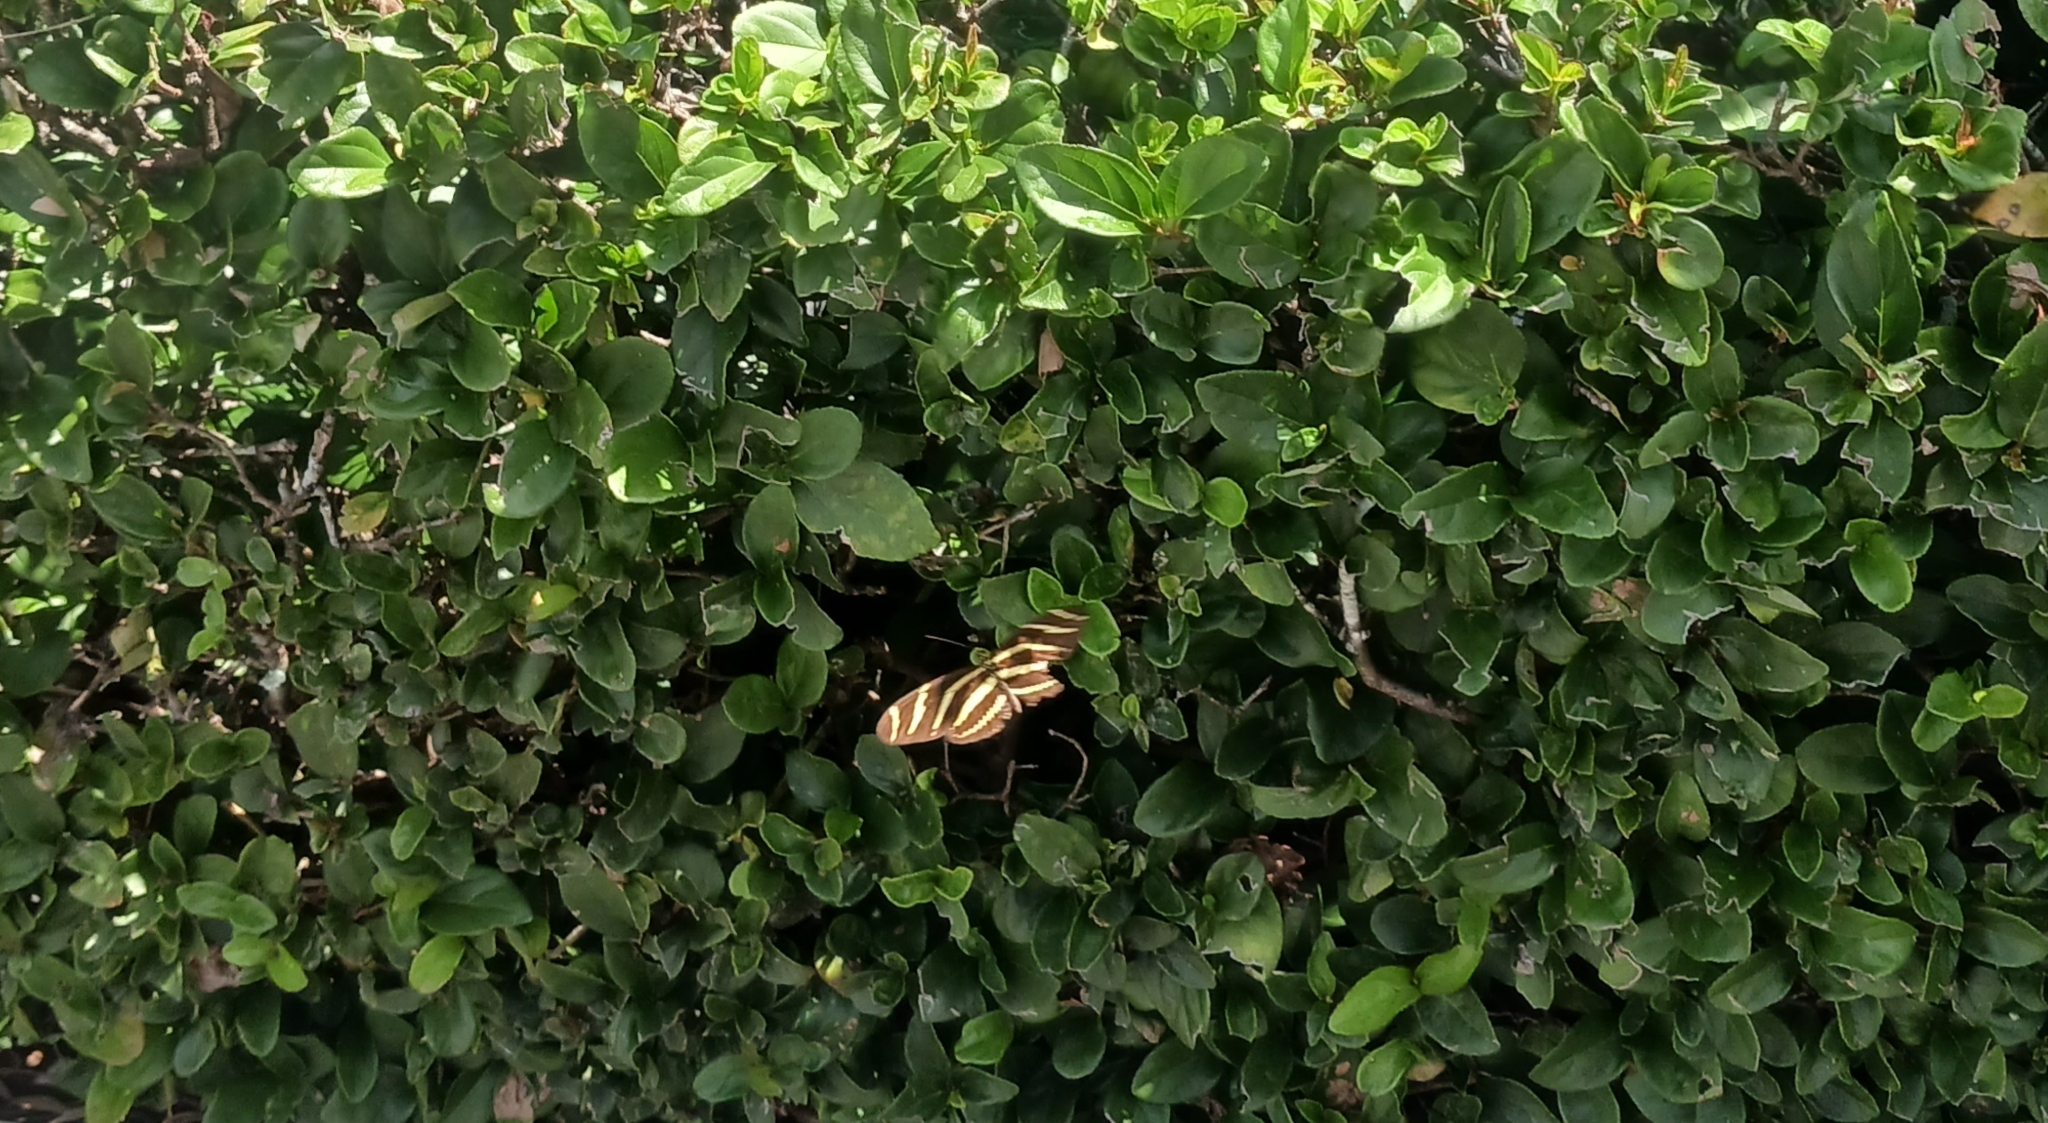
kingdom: Animalia
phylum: Arthropoda
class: Insecta
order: Lepidoptera
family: Nymphalidae
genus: Heliconius
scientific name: Heliconius charithonia
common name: Zebra long wing
